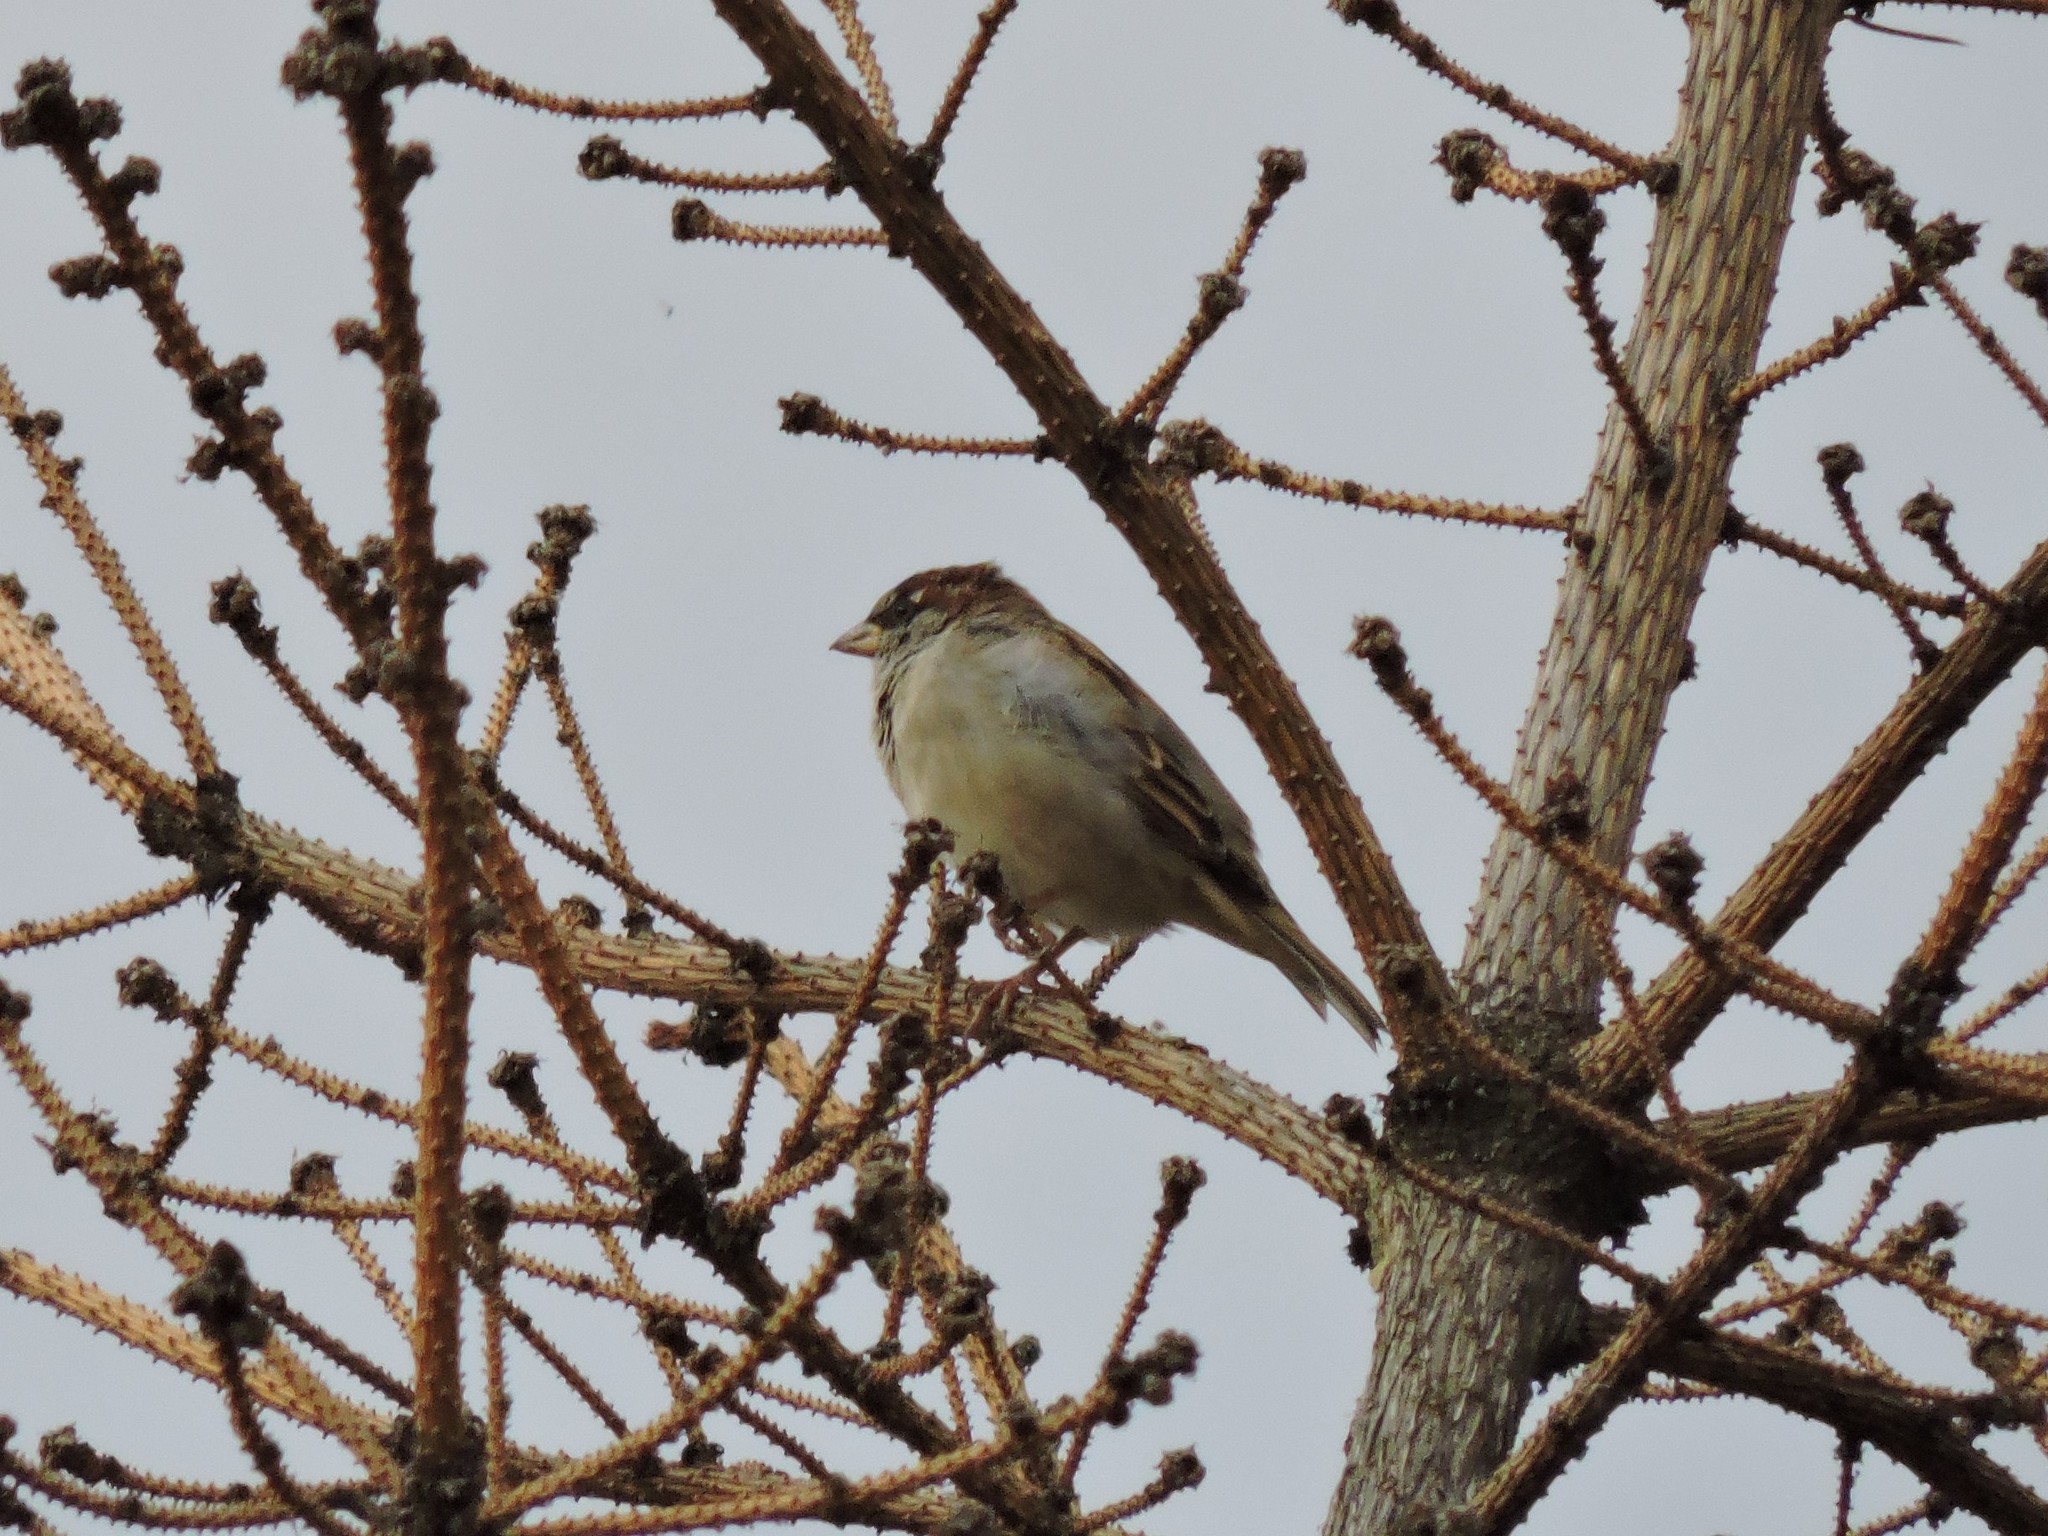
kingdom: Animalia
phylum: Chordata
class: Aves
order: Passeriformes
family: Passeridae
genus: Passer
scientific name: Passer domesticus
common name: House sparrow
